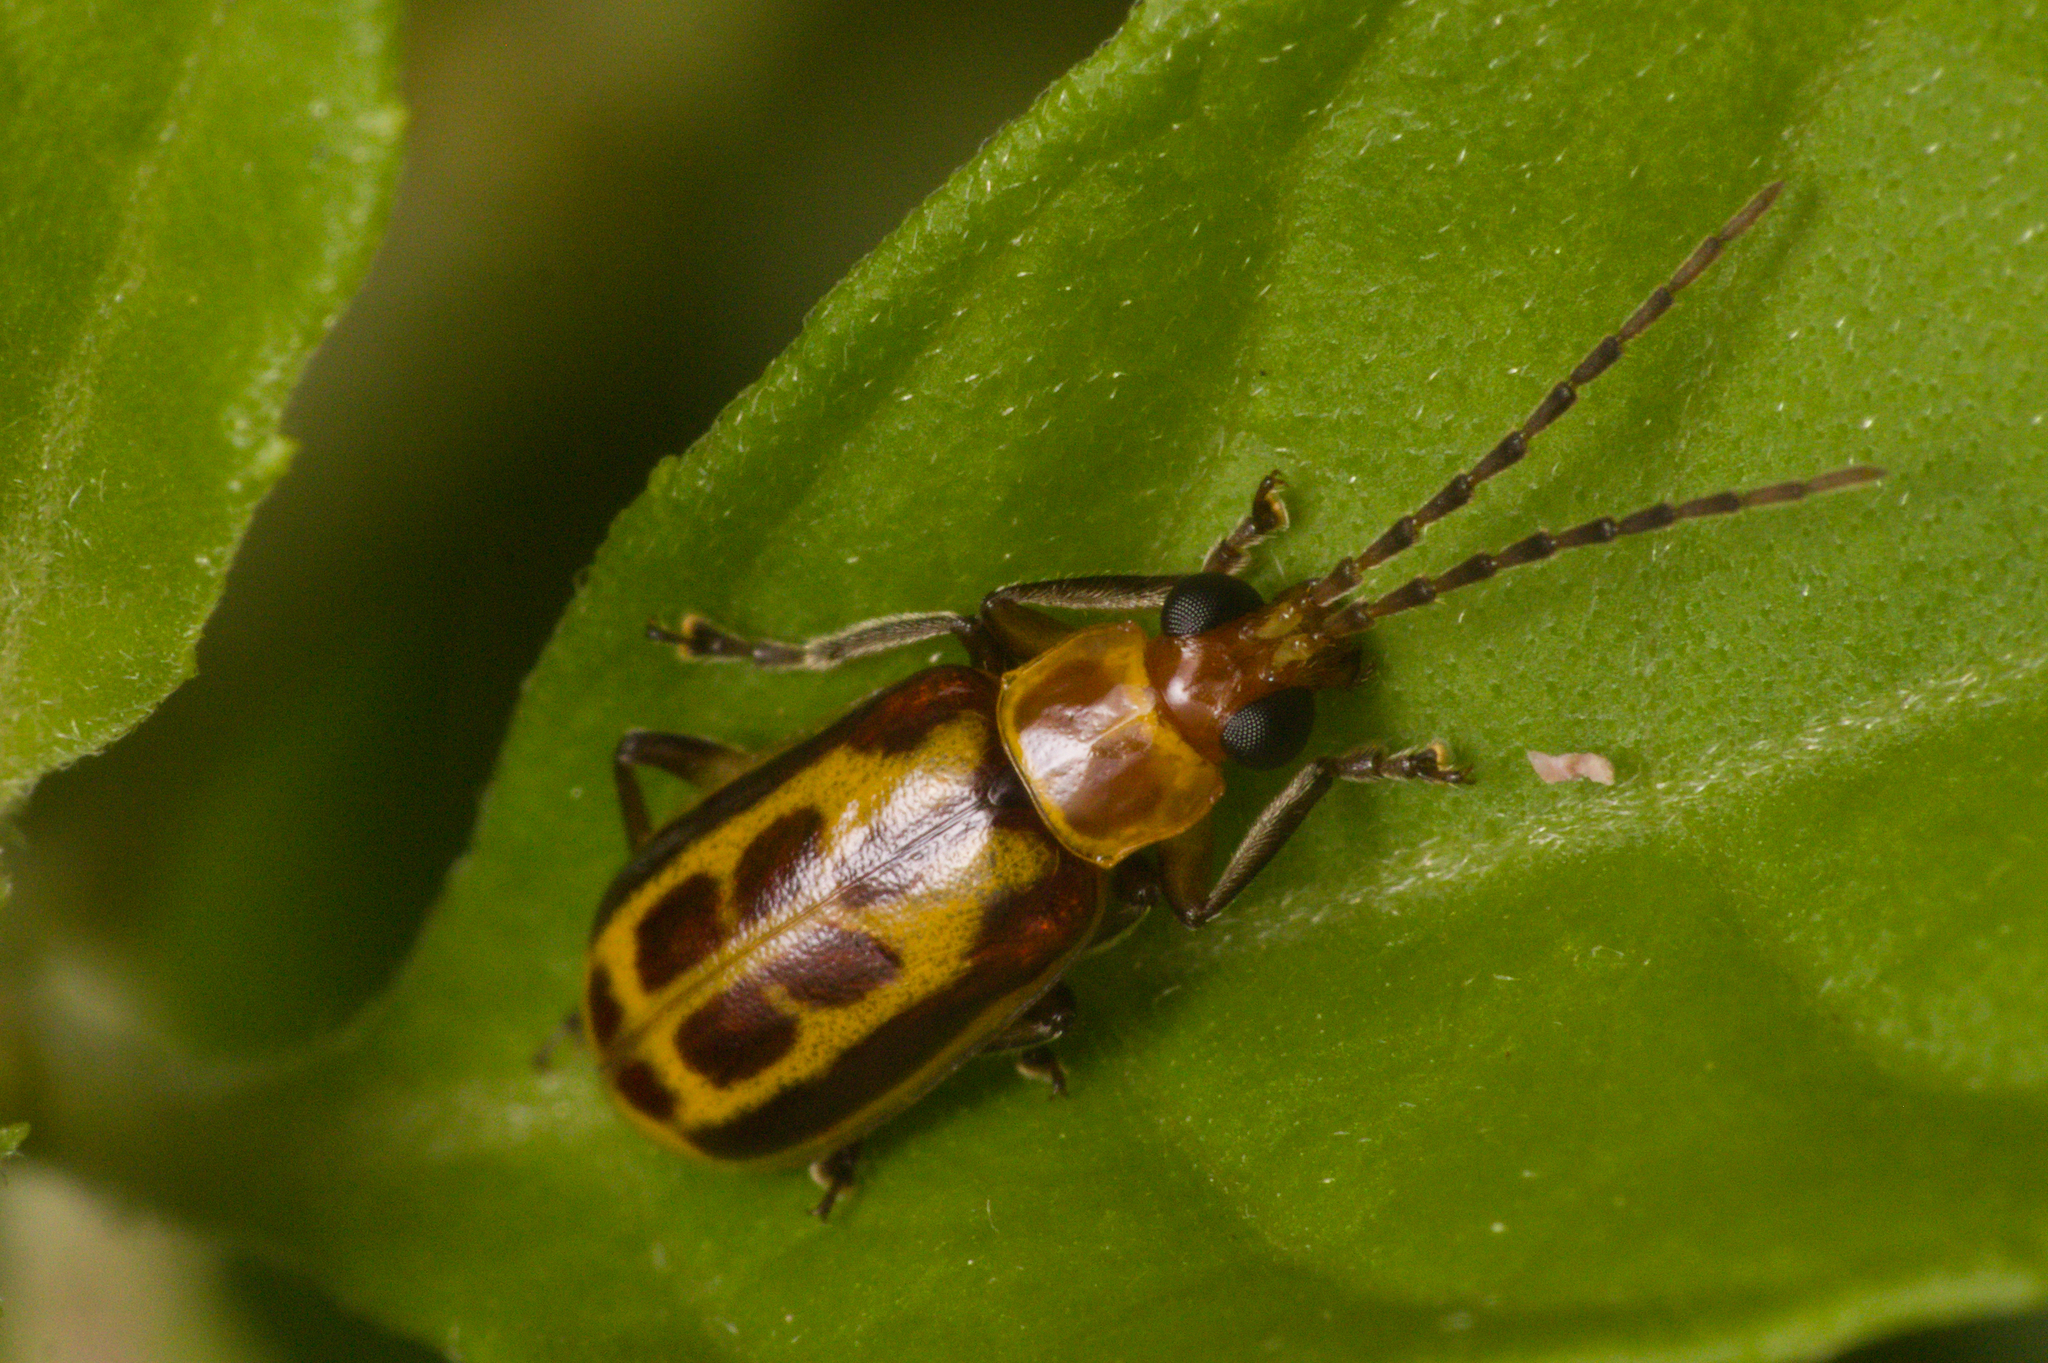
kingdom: Animalia
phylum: Arthropoda
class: Insecta
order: Coleoptera
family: Chrysomelidae
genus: Paranapiacaba
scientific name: Paranapiacaba significata
